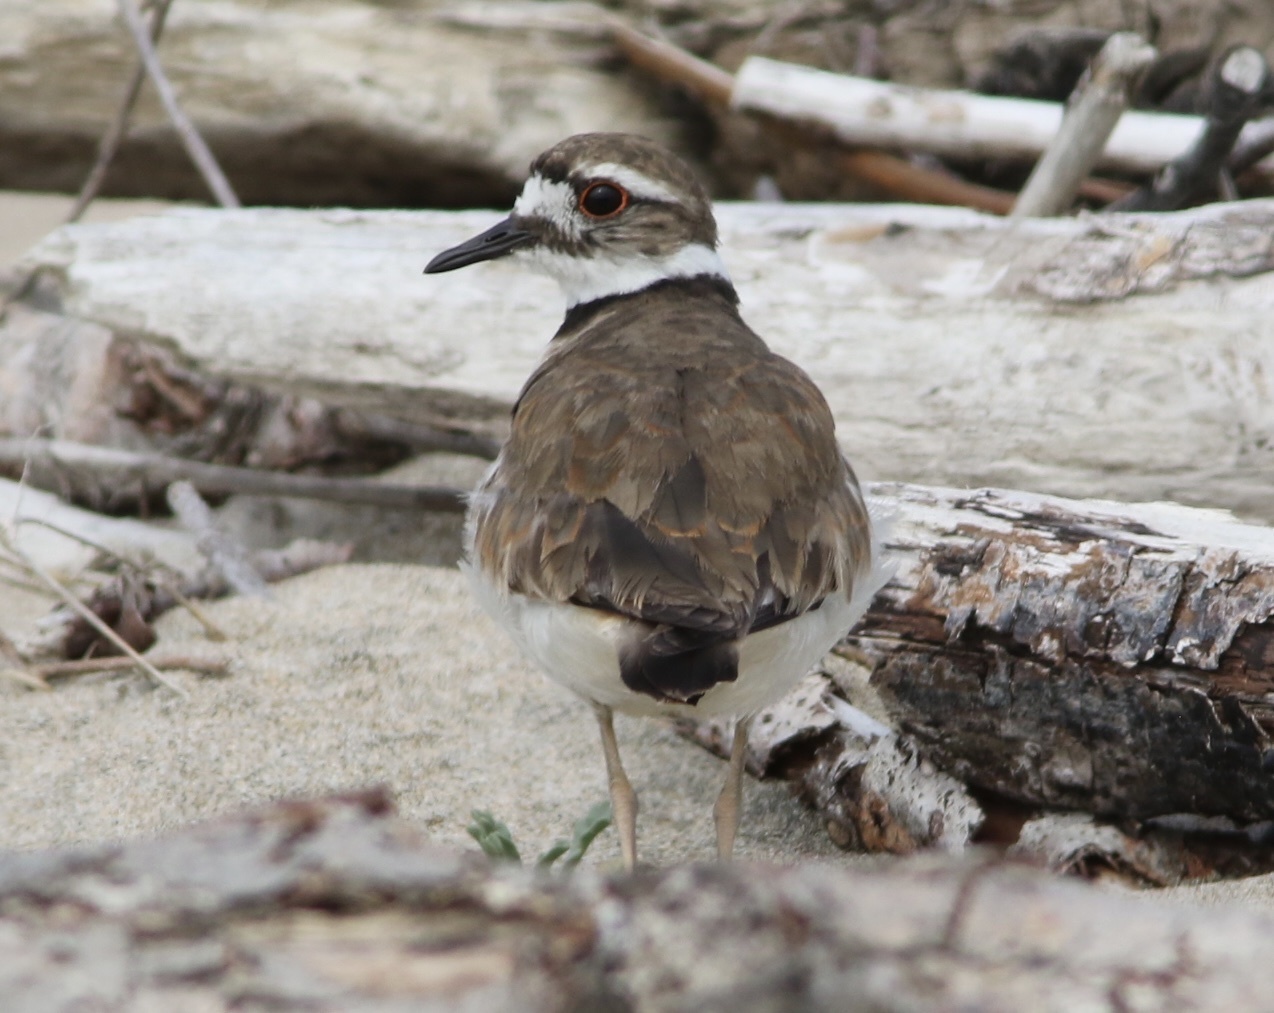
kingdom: Animalia
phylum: Chordata
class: Aves
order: Charadriiformes
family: Charadriidae
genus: Charadrius
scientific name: Charadrius vociferus
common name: Killdeer
